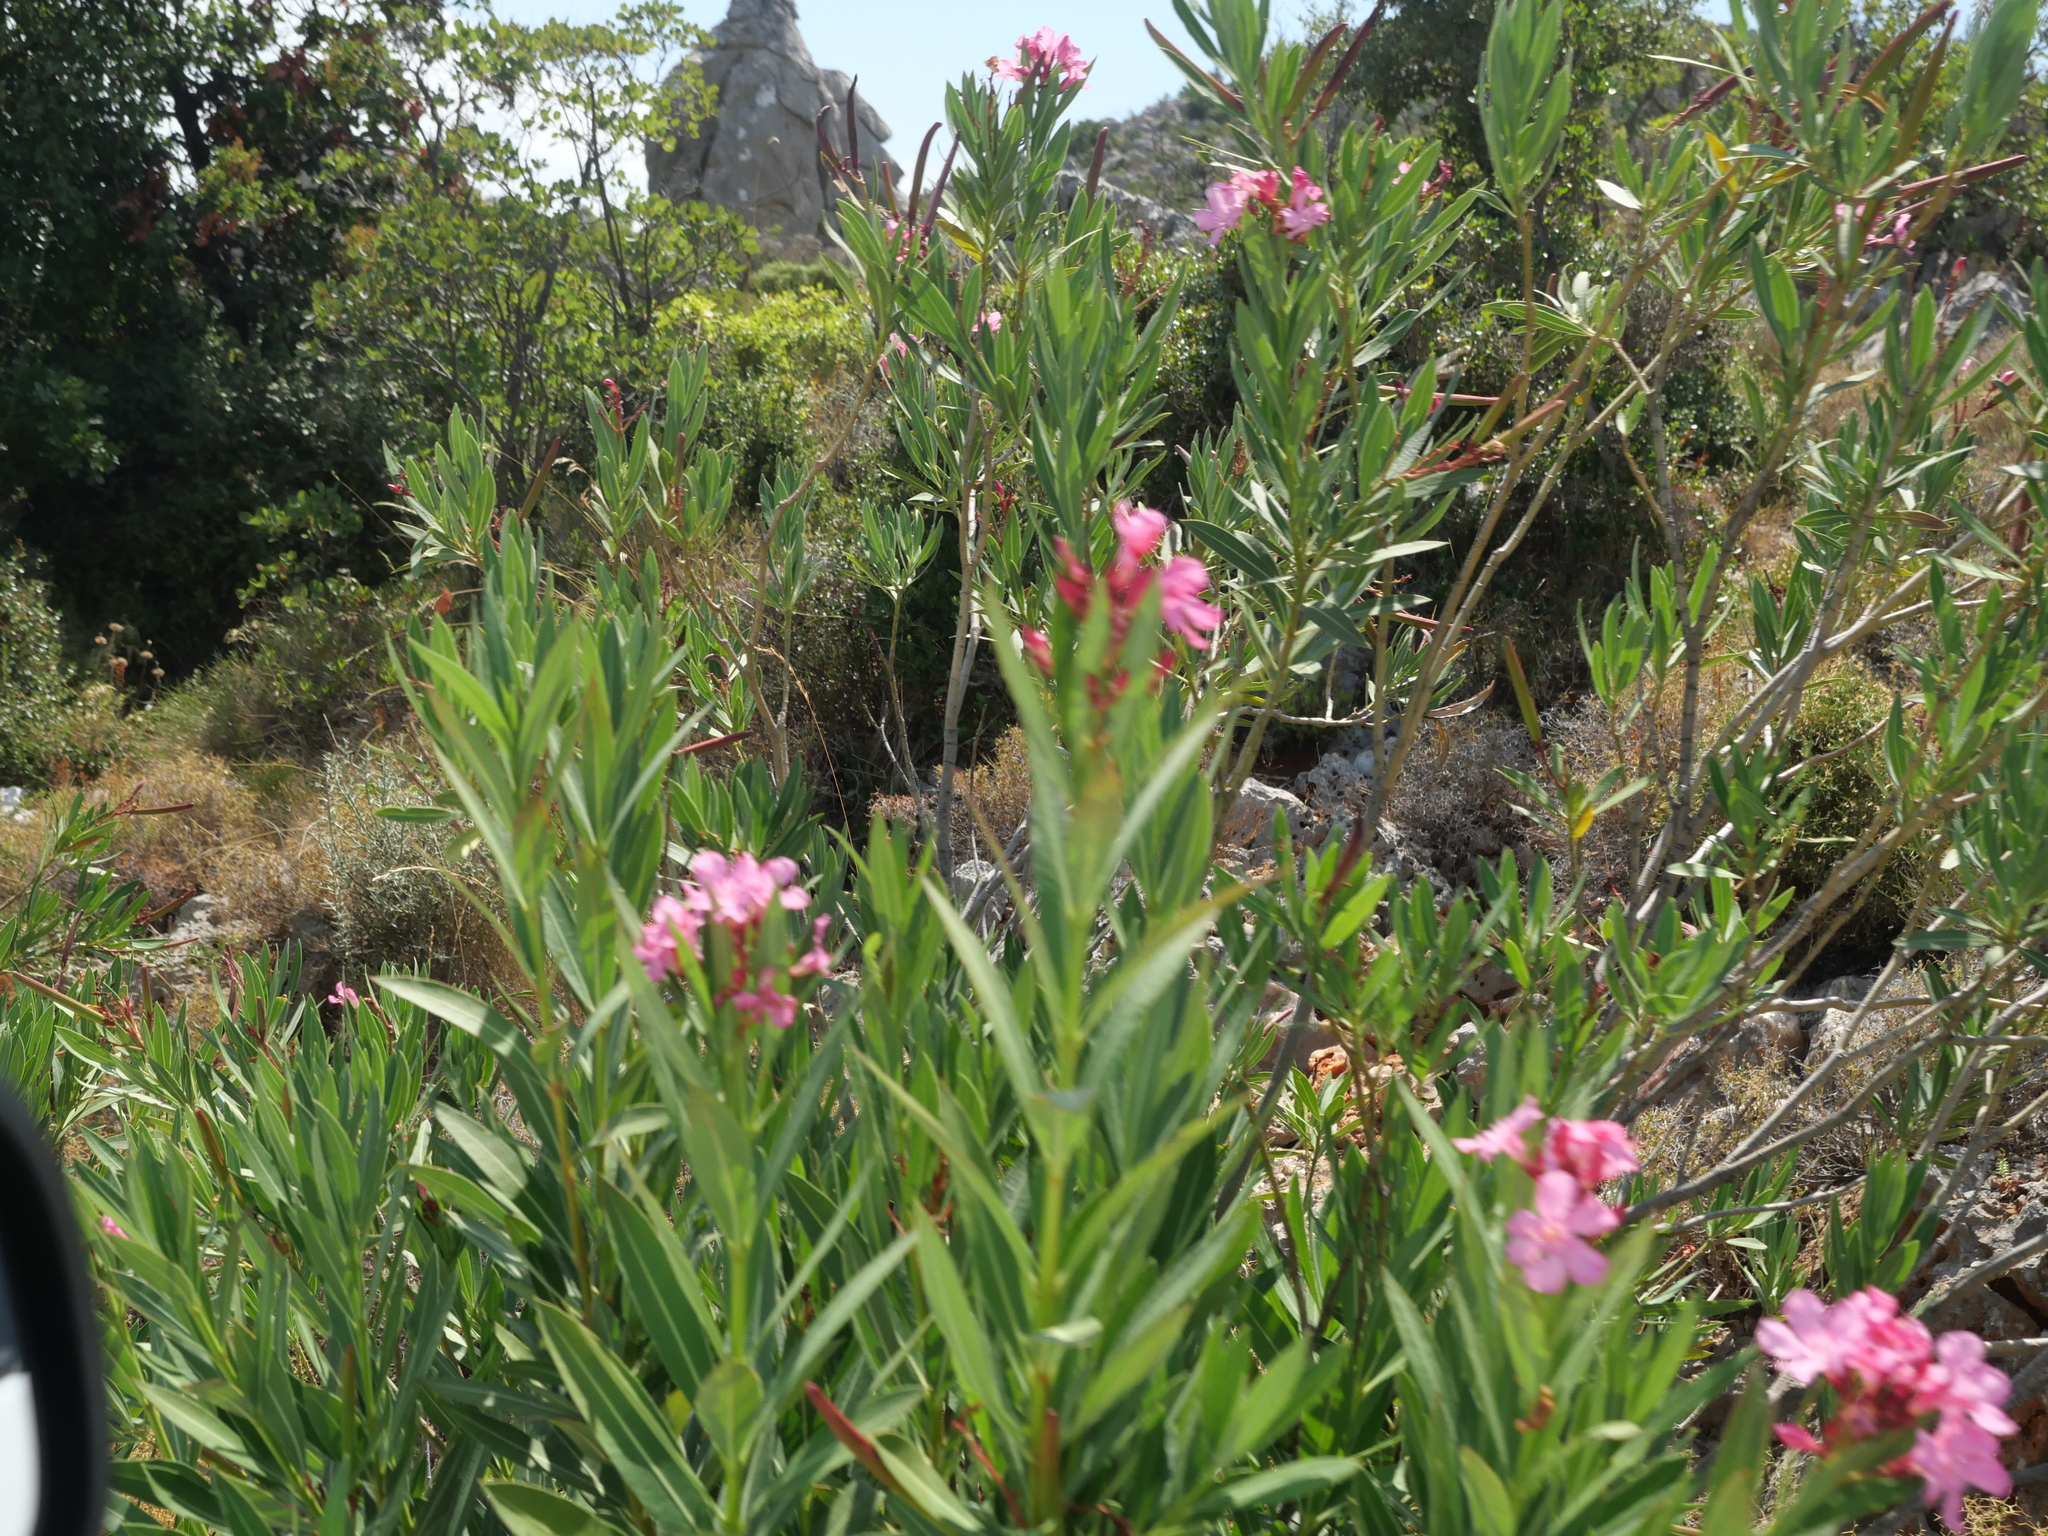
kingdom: Plantae
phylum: Tracheophyta
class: Magnoliopsida
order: Gentianales
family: Apocynaceae
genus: Nerium
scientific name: Nerium oleander
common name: Oleander
